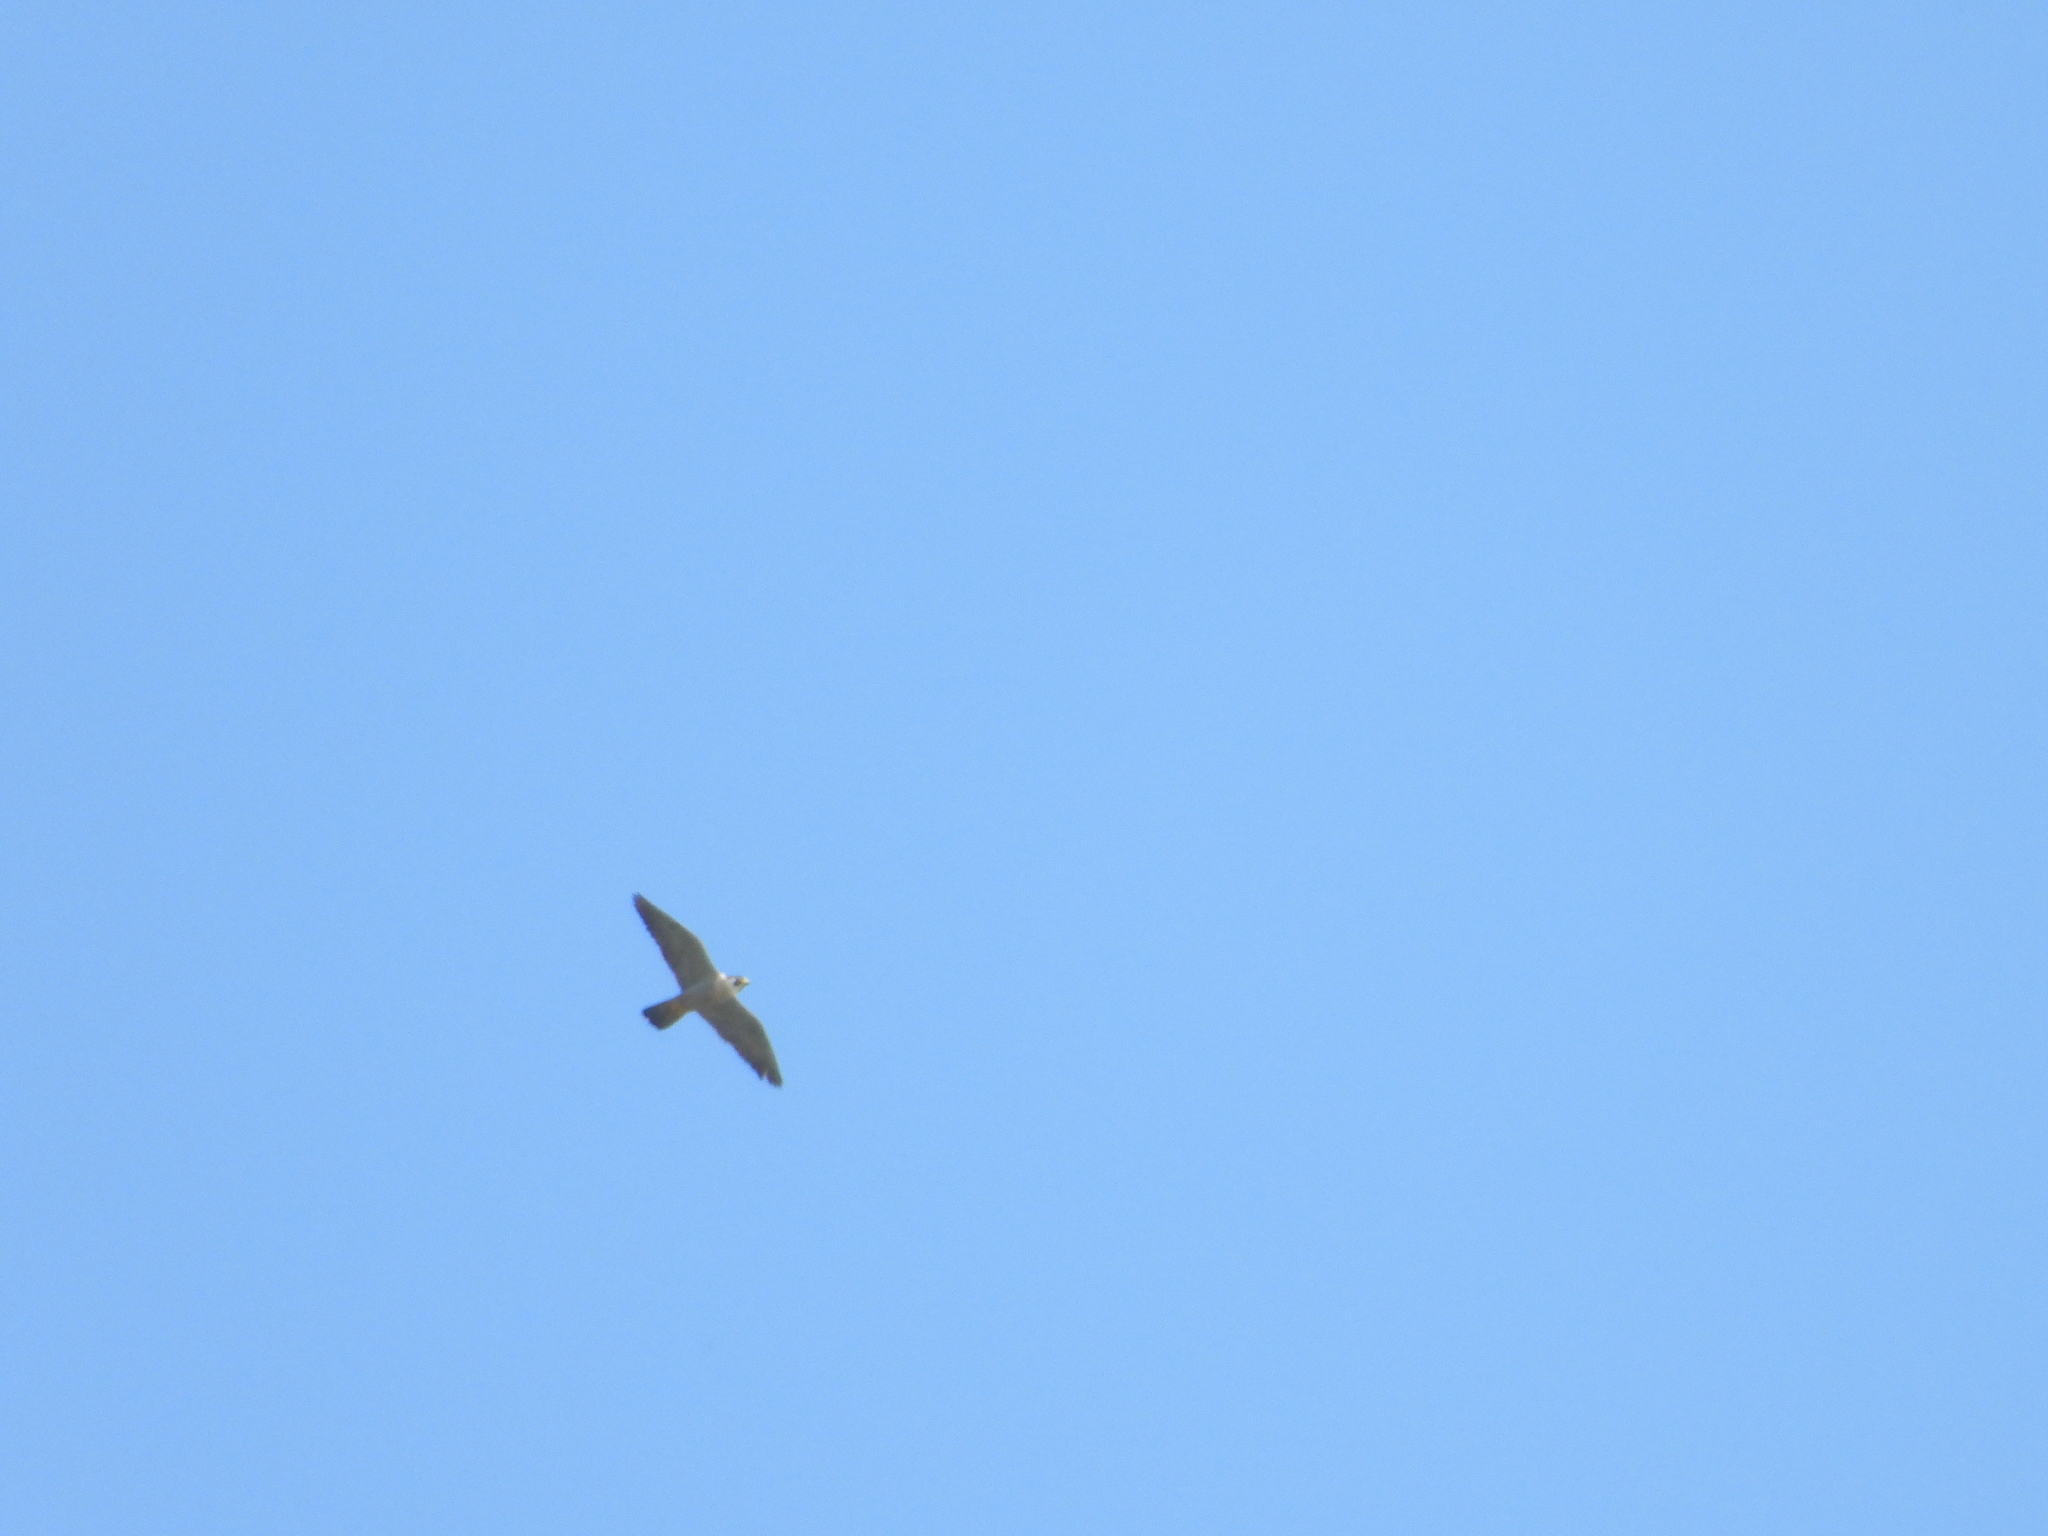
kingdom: Animalia
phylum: Chordata
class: Aves
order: Falconiformes
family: Falconidae
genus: Falco
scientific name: Falco peregrinus
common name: Peregrine falcon
